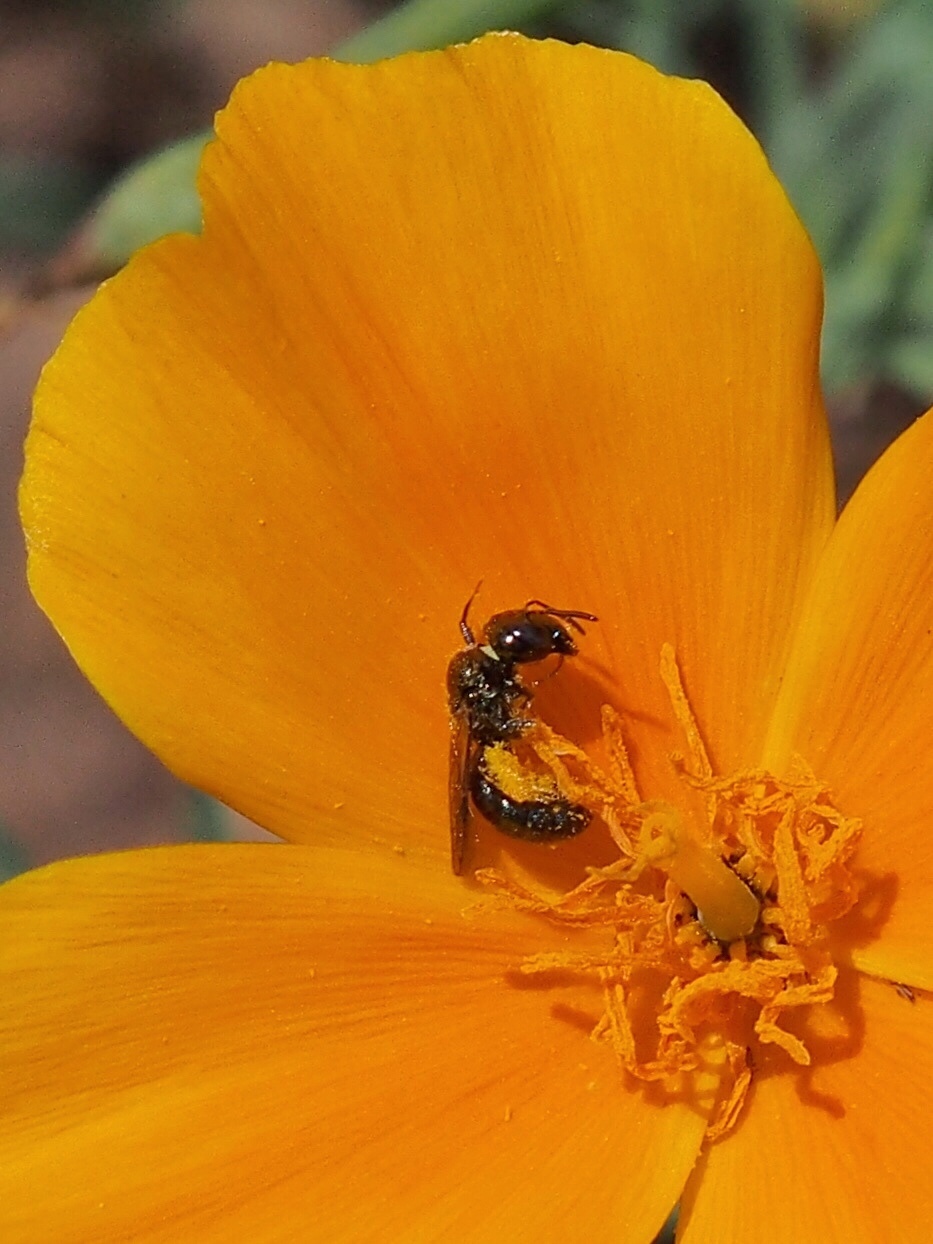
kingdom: Animalia
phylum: Arthropoda
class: Insecta
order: Hymenoptera
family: Apidae
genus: Zadontomerus
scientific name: Zadontomerus
